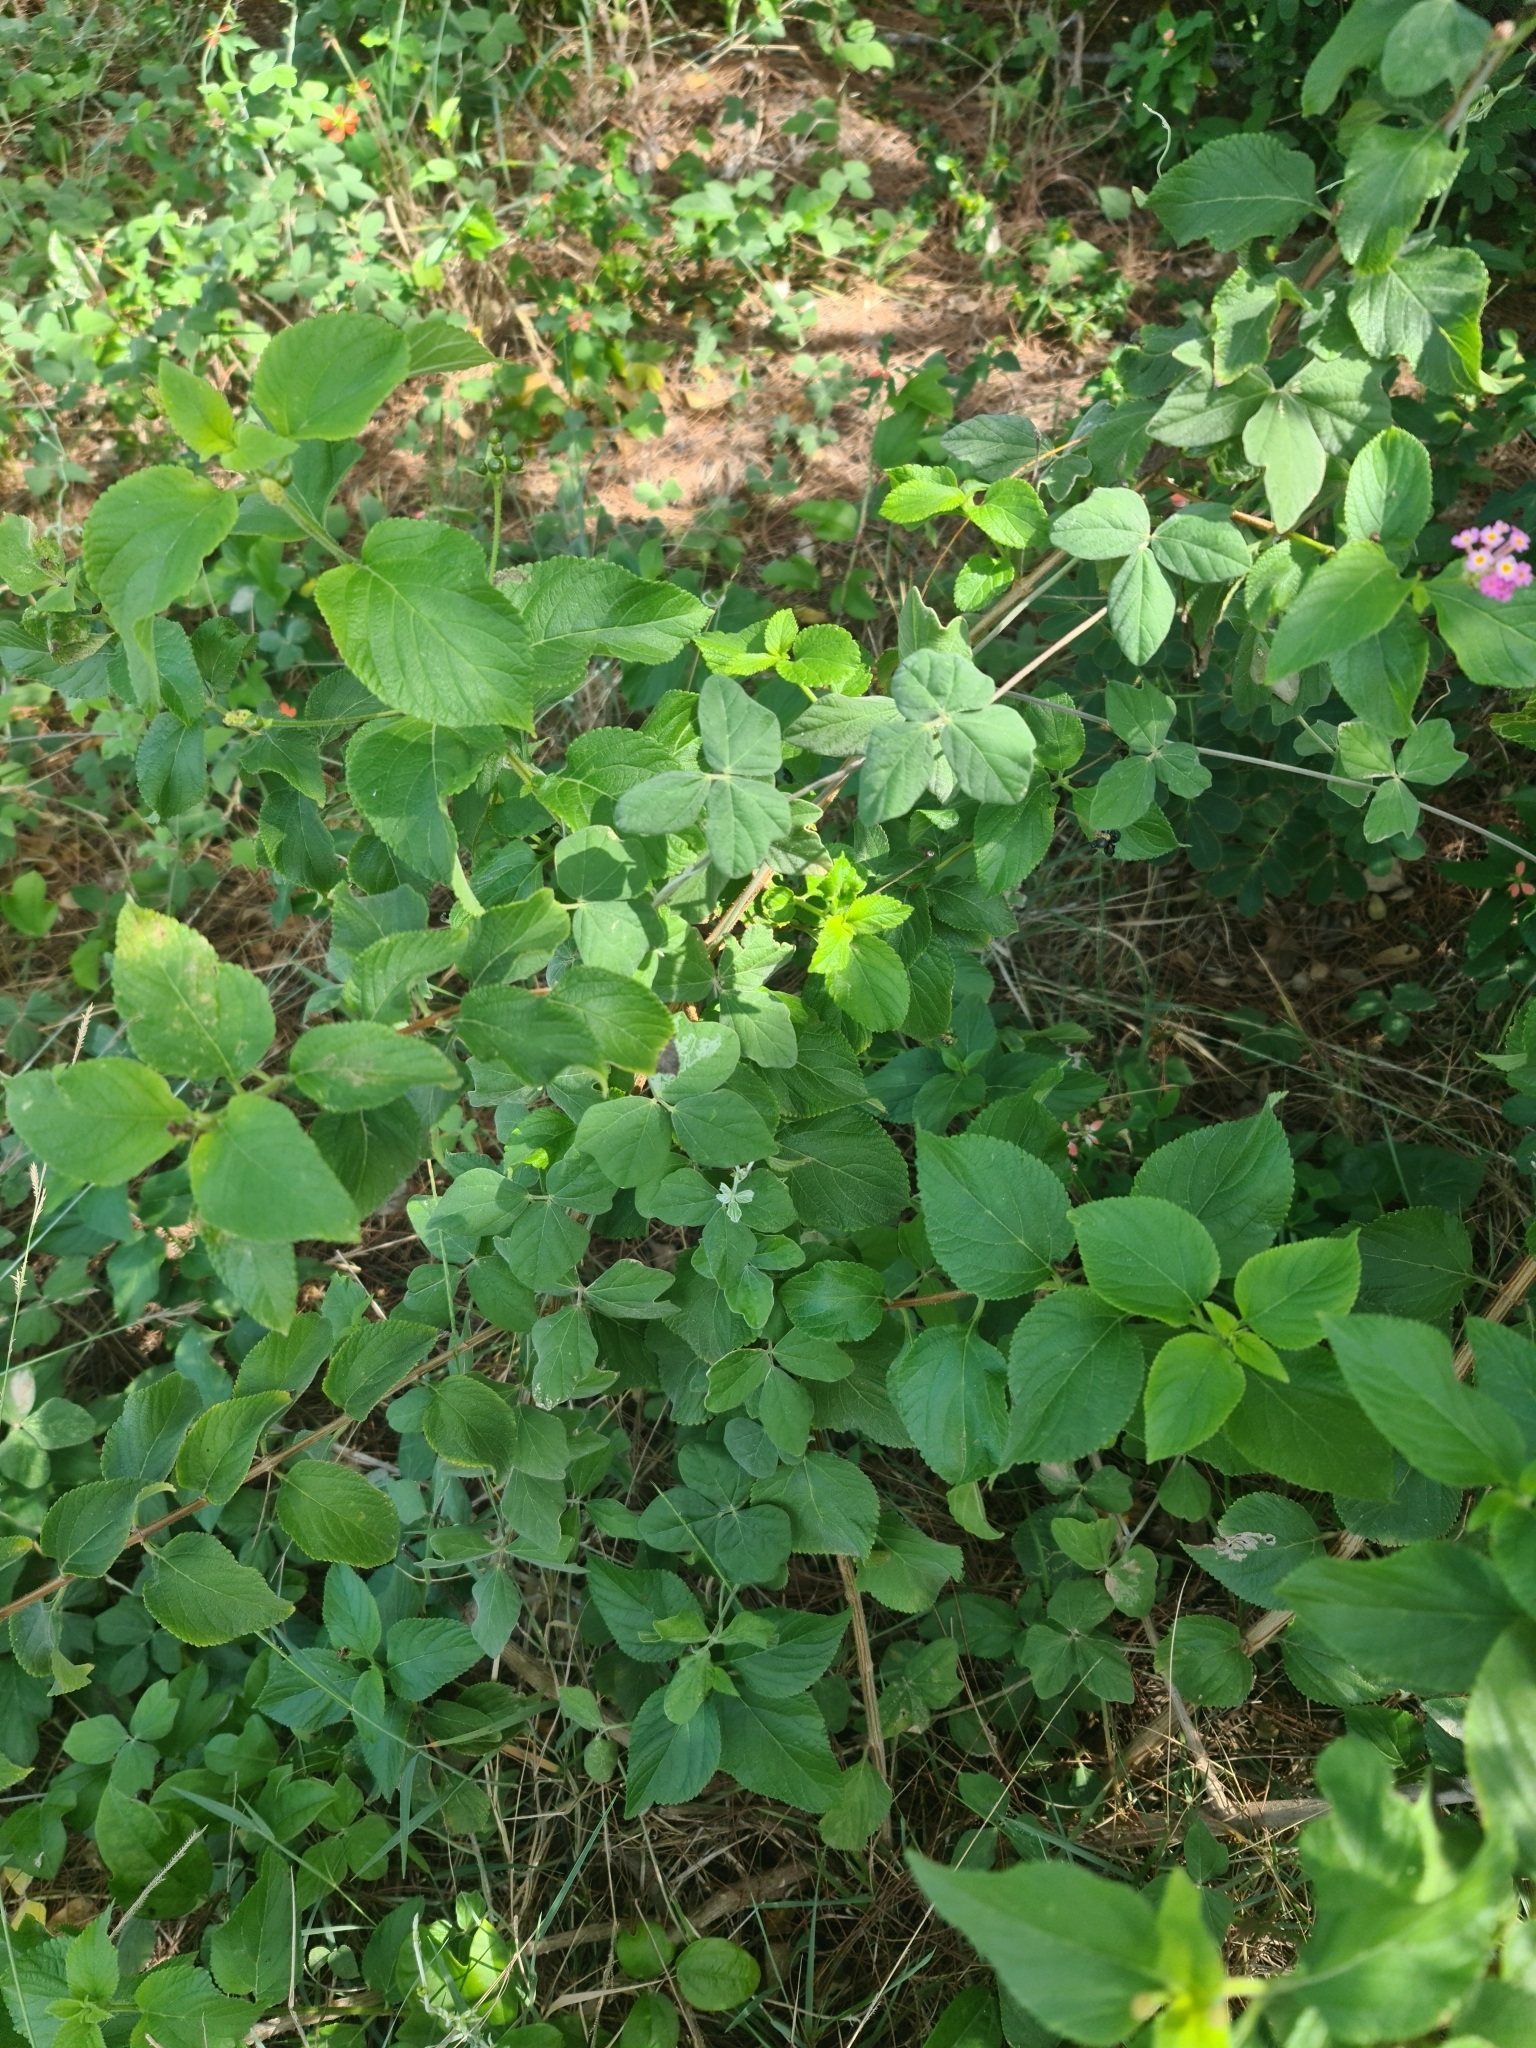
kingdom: Plantae
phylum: Tracheophyta
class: Magnoliopsida
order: Lamiales
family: Verbenaceae
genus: Lantana
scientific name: Lantana camara
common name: Lantana
